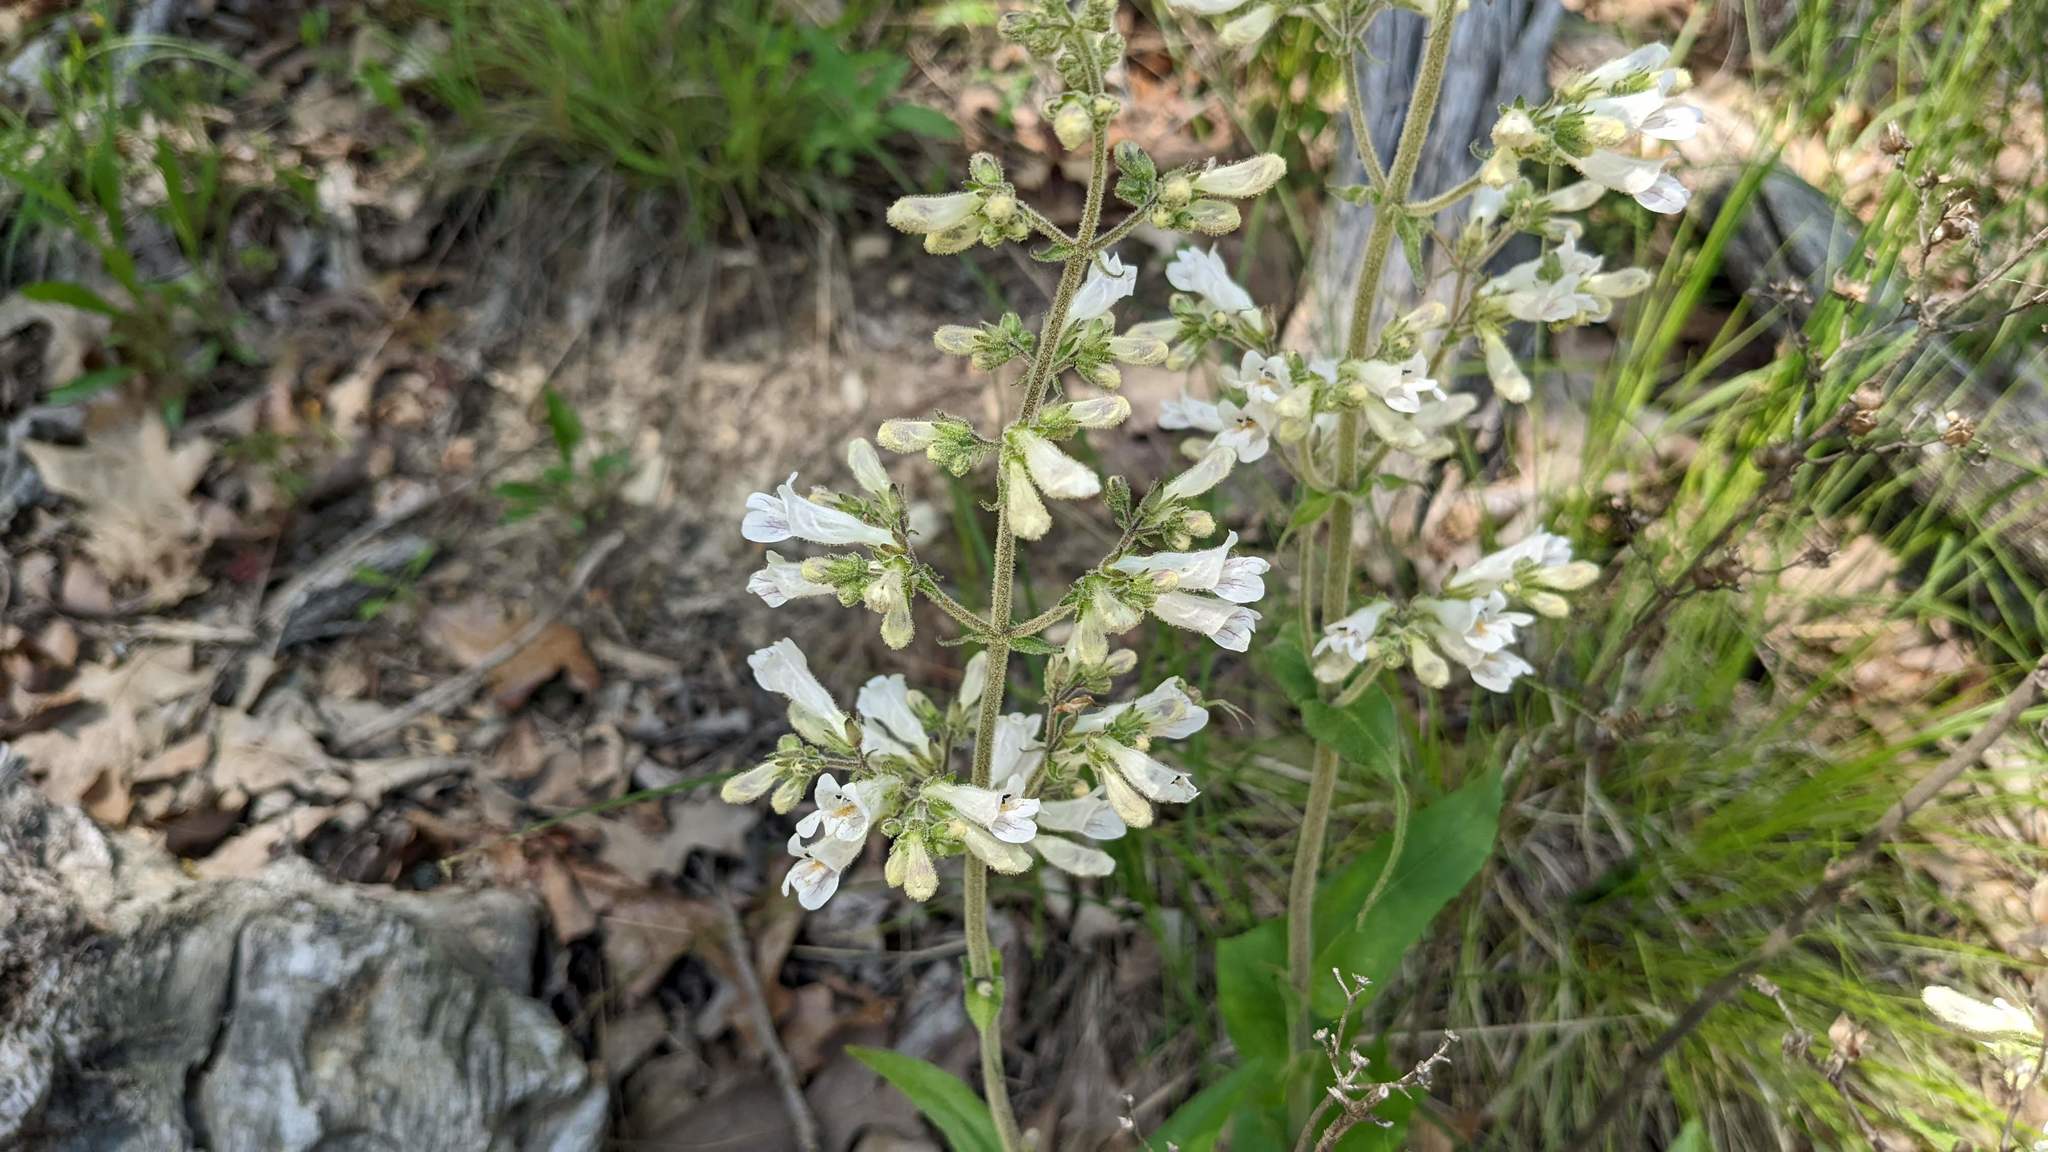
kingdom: Plantae
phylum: Tracheophyta
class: Magnoliopsida
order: Lamiales
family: Plantaginaceae
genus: Penstemon
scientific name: Penstemon pallidus
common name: Pale beardtongue
